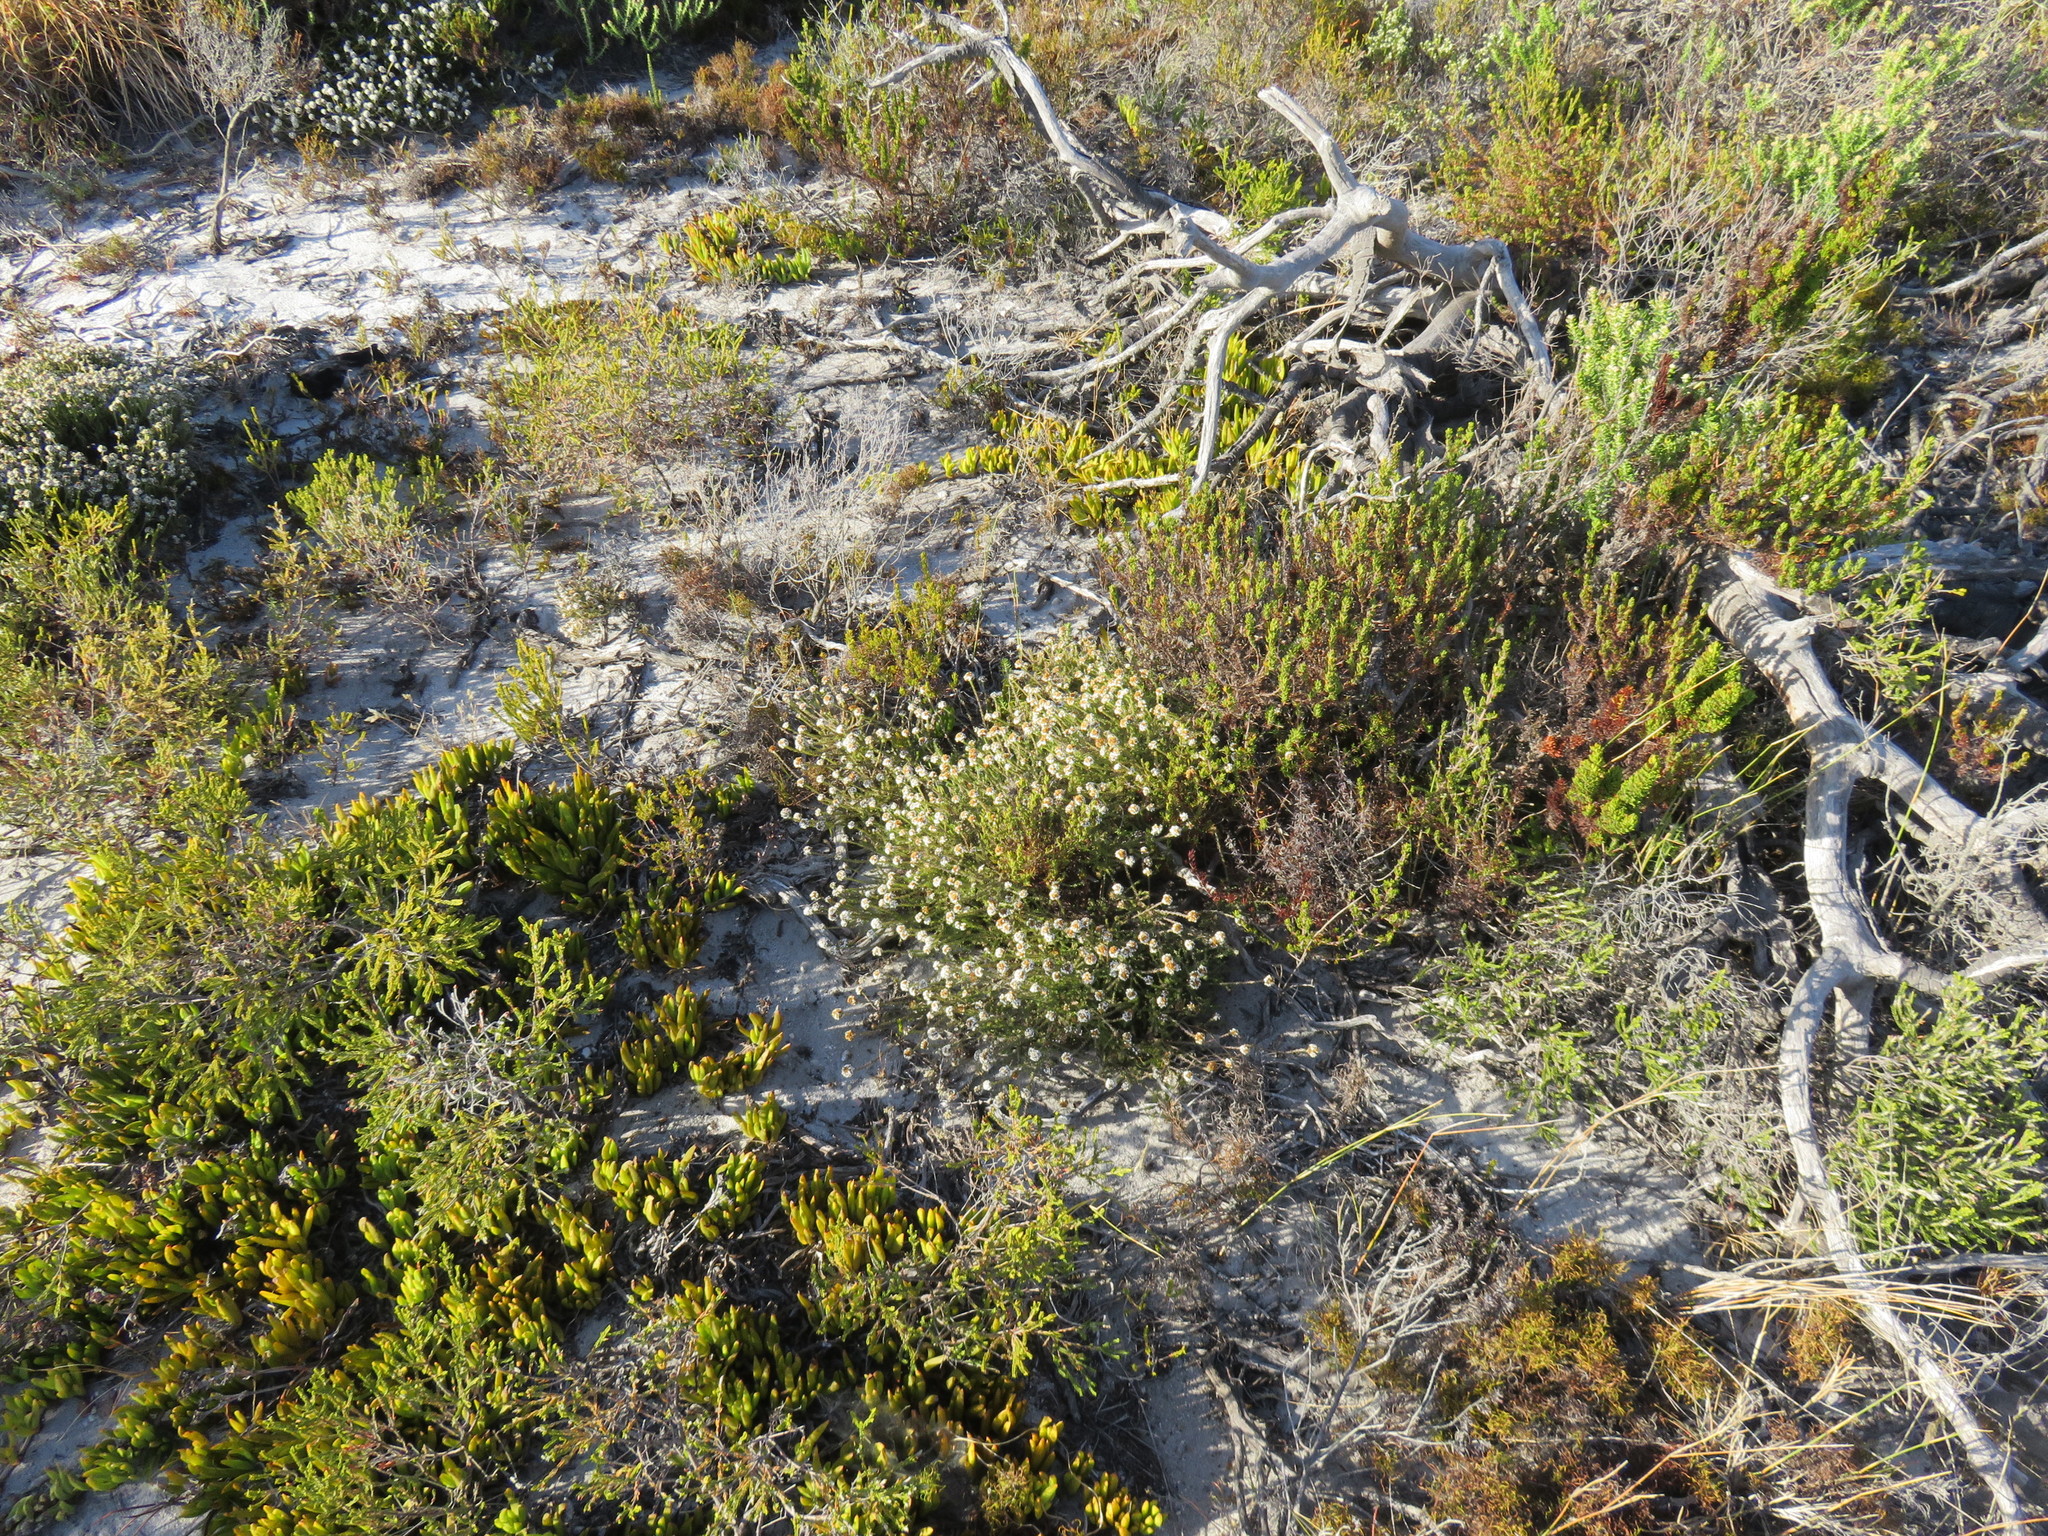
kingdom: Plantae
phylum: Tracheophyta
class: Magnoliopsida
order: Asterales
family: Asteraceae
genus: Disparago
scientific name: Disparago anomala
